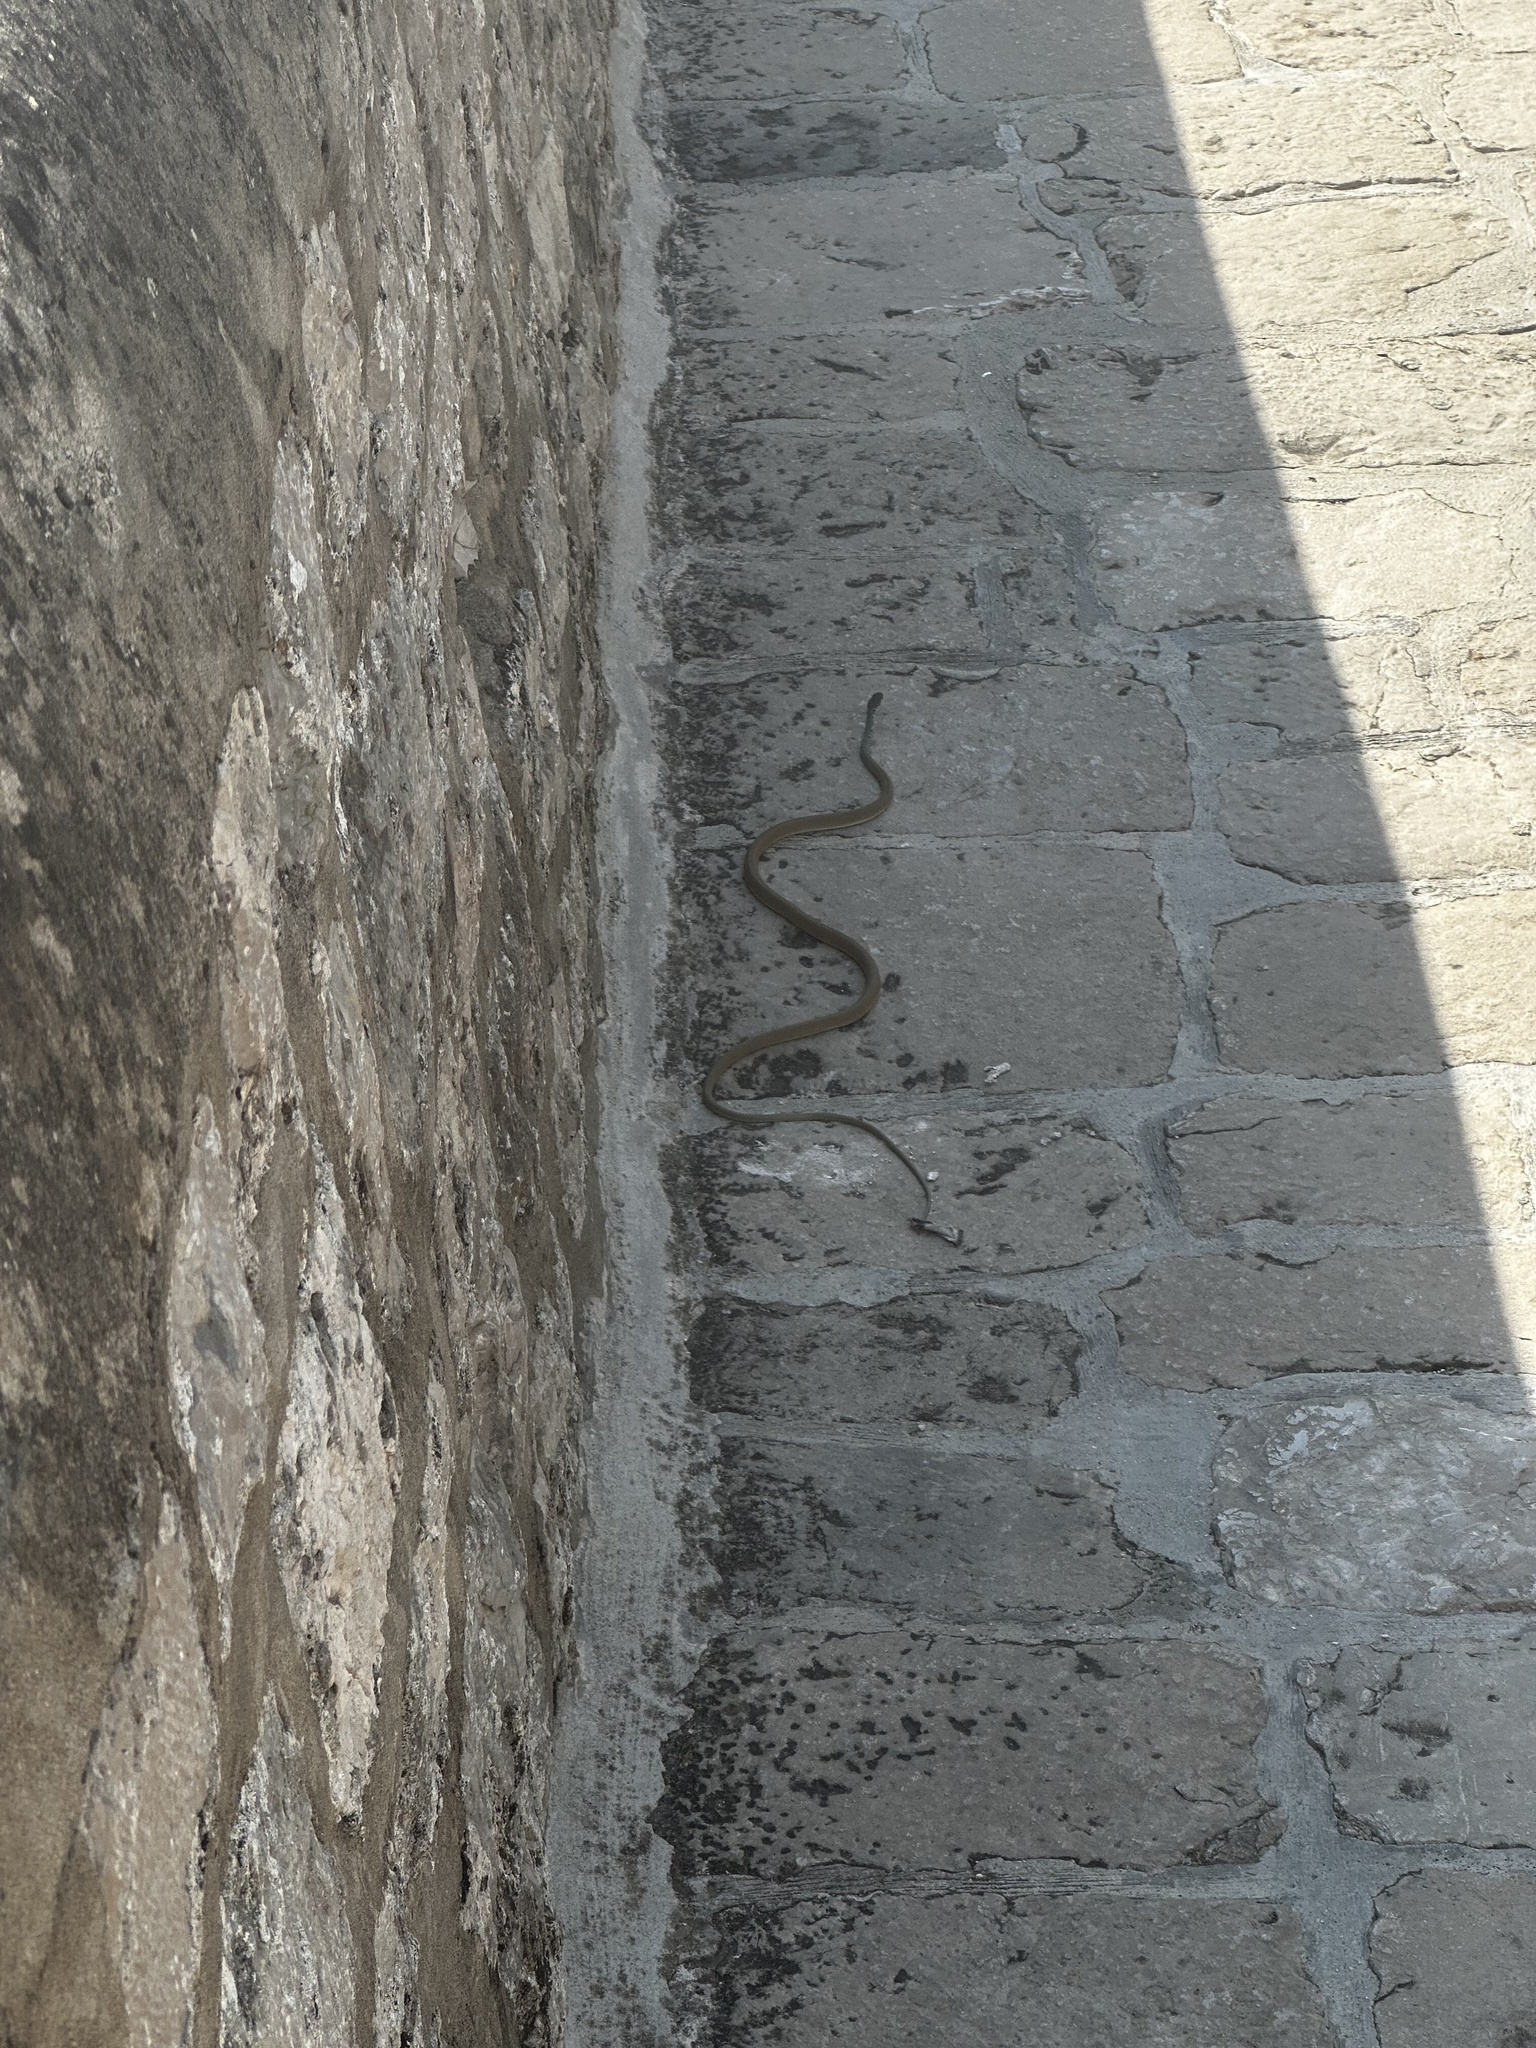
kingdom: Animalia
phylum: Chordata
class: Squamata
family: Colubridae
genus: Platyceps
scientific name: Platyceps najadum
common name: Dahl's whip snake
